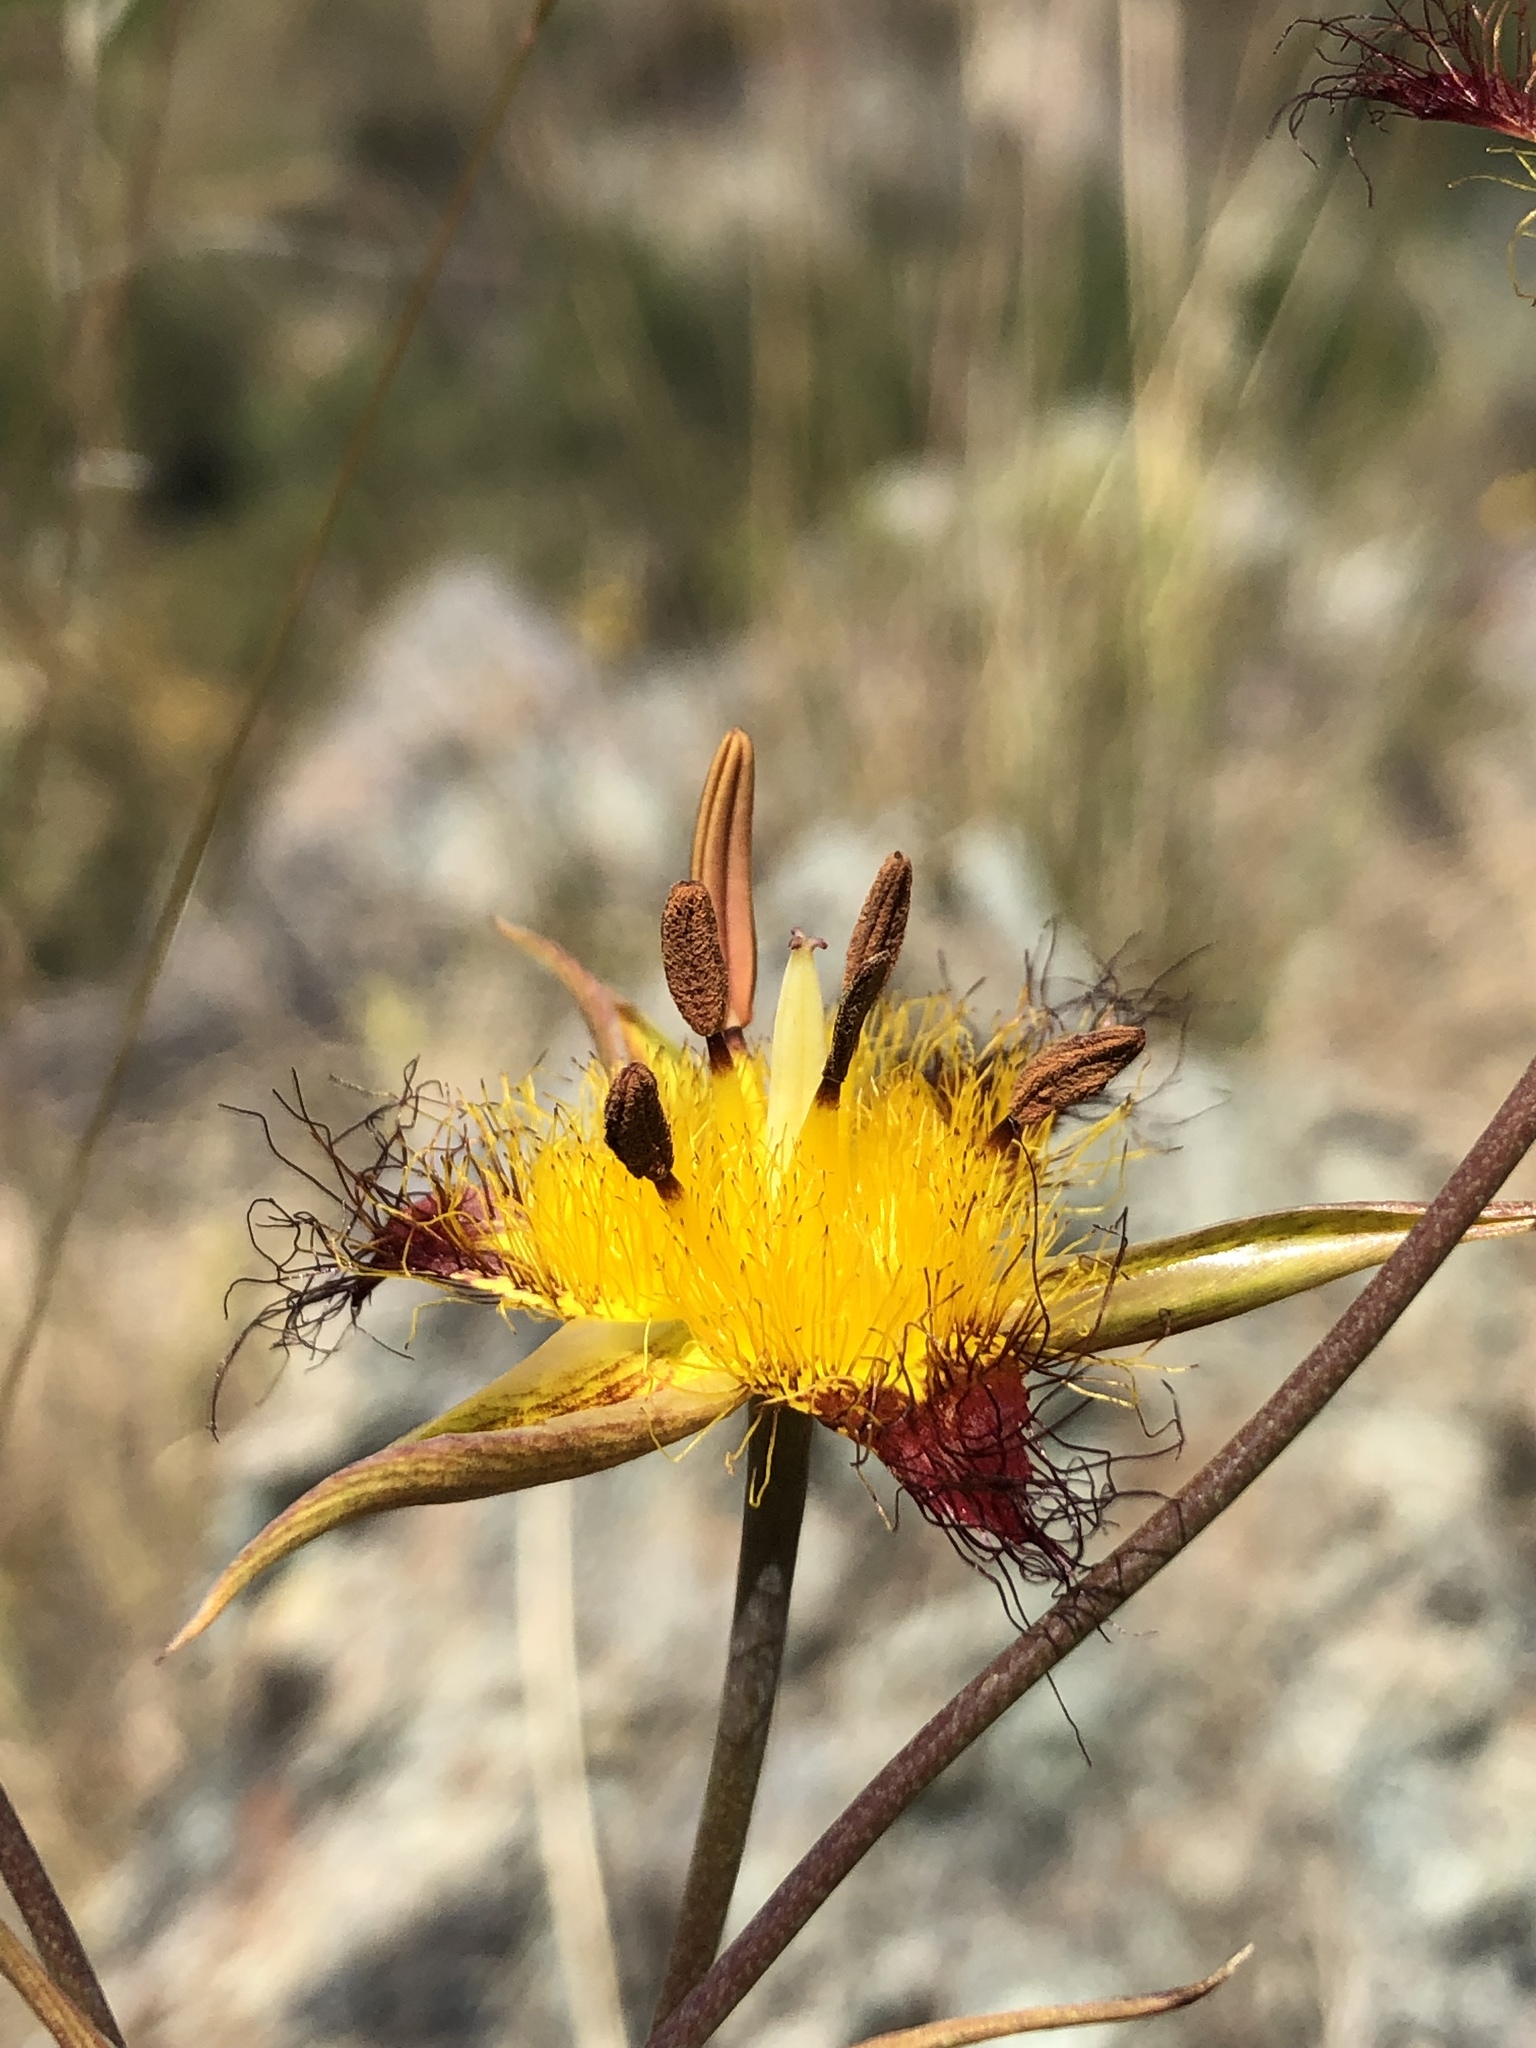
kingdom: Plantae
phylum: Tracheophyta
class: Liliopsida
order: Liliales
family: Liliaceae
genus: Calochortus
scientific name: Calochortus obispoensis
